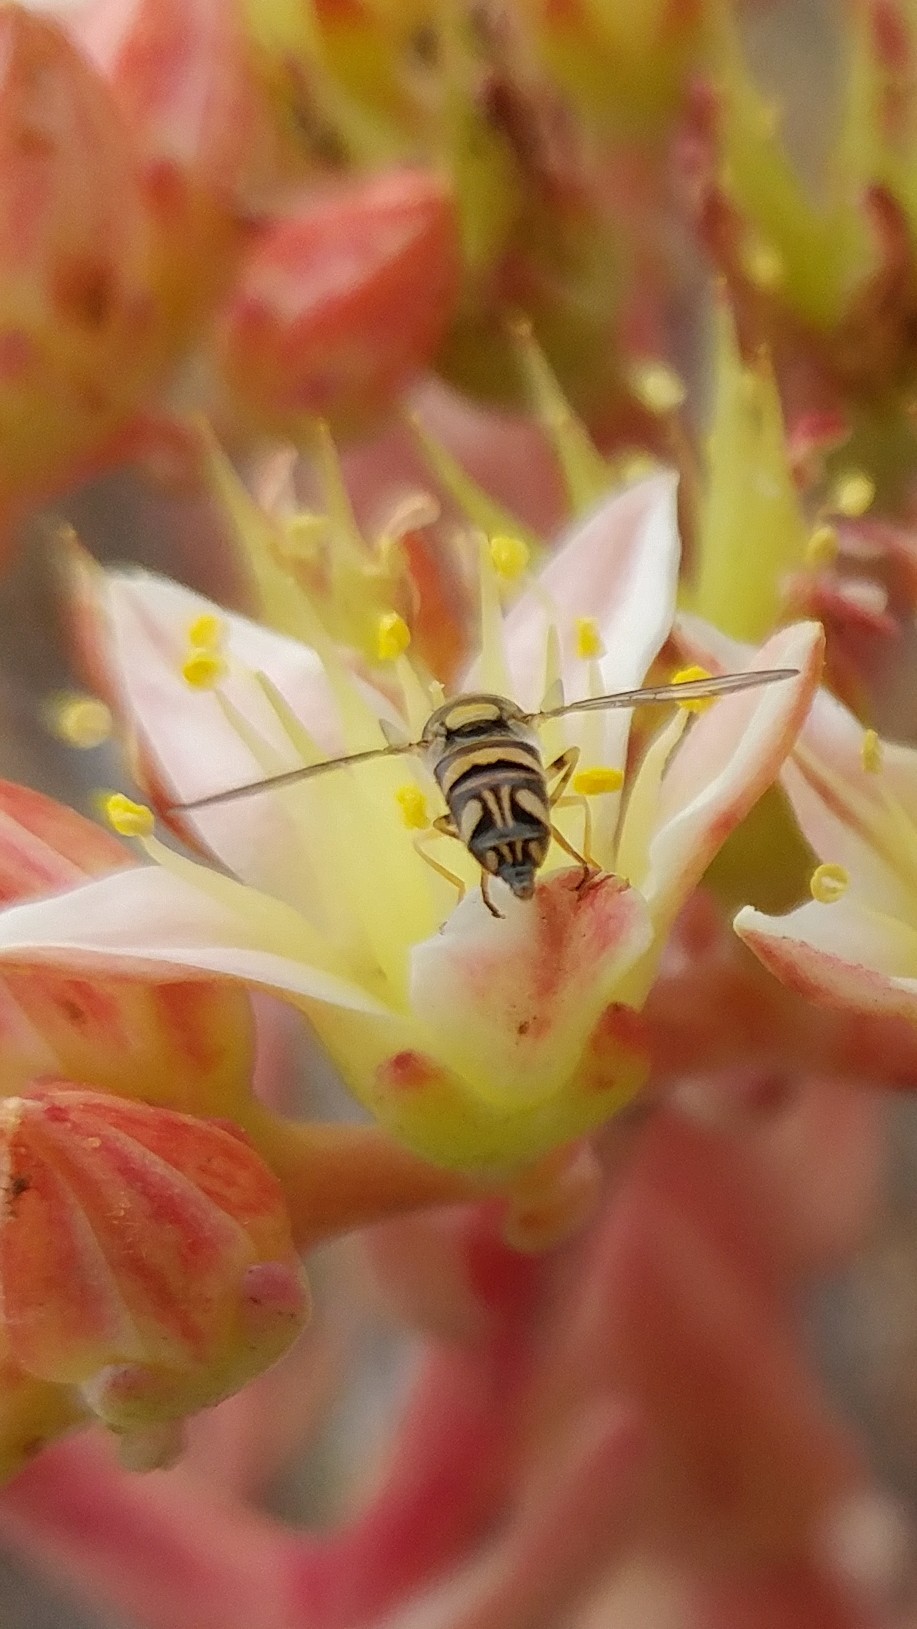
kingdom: Animalia
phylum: Arthropoda
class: Insecta
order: Diptera
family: Syrphidae
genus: Allograpta
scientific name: Allograpta exotica
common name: Syrphid fly
